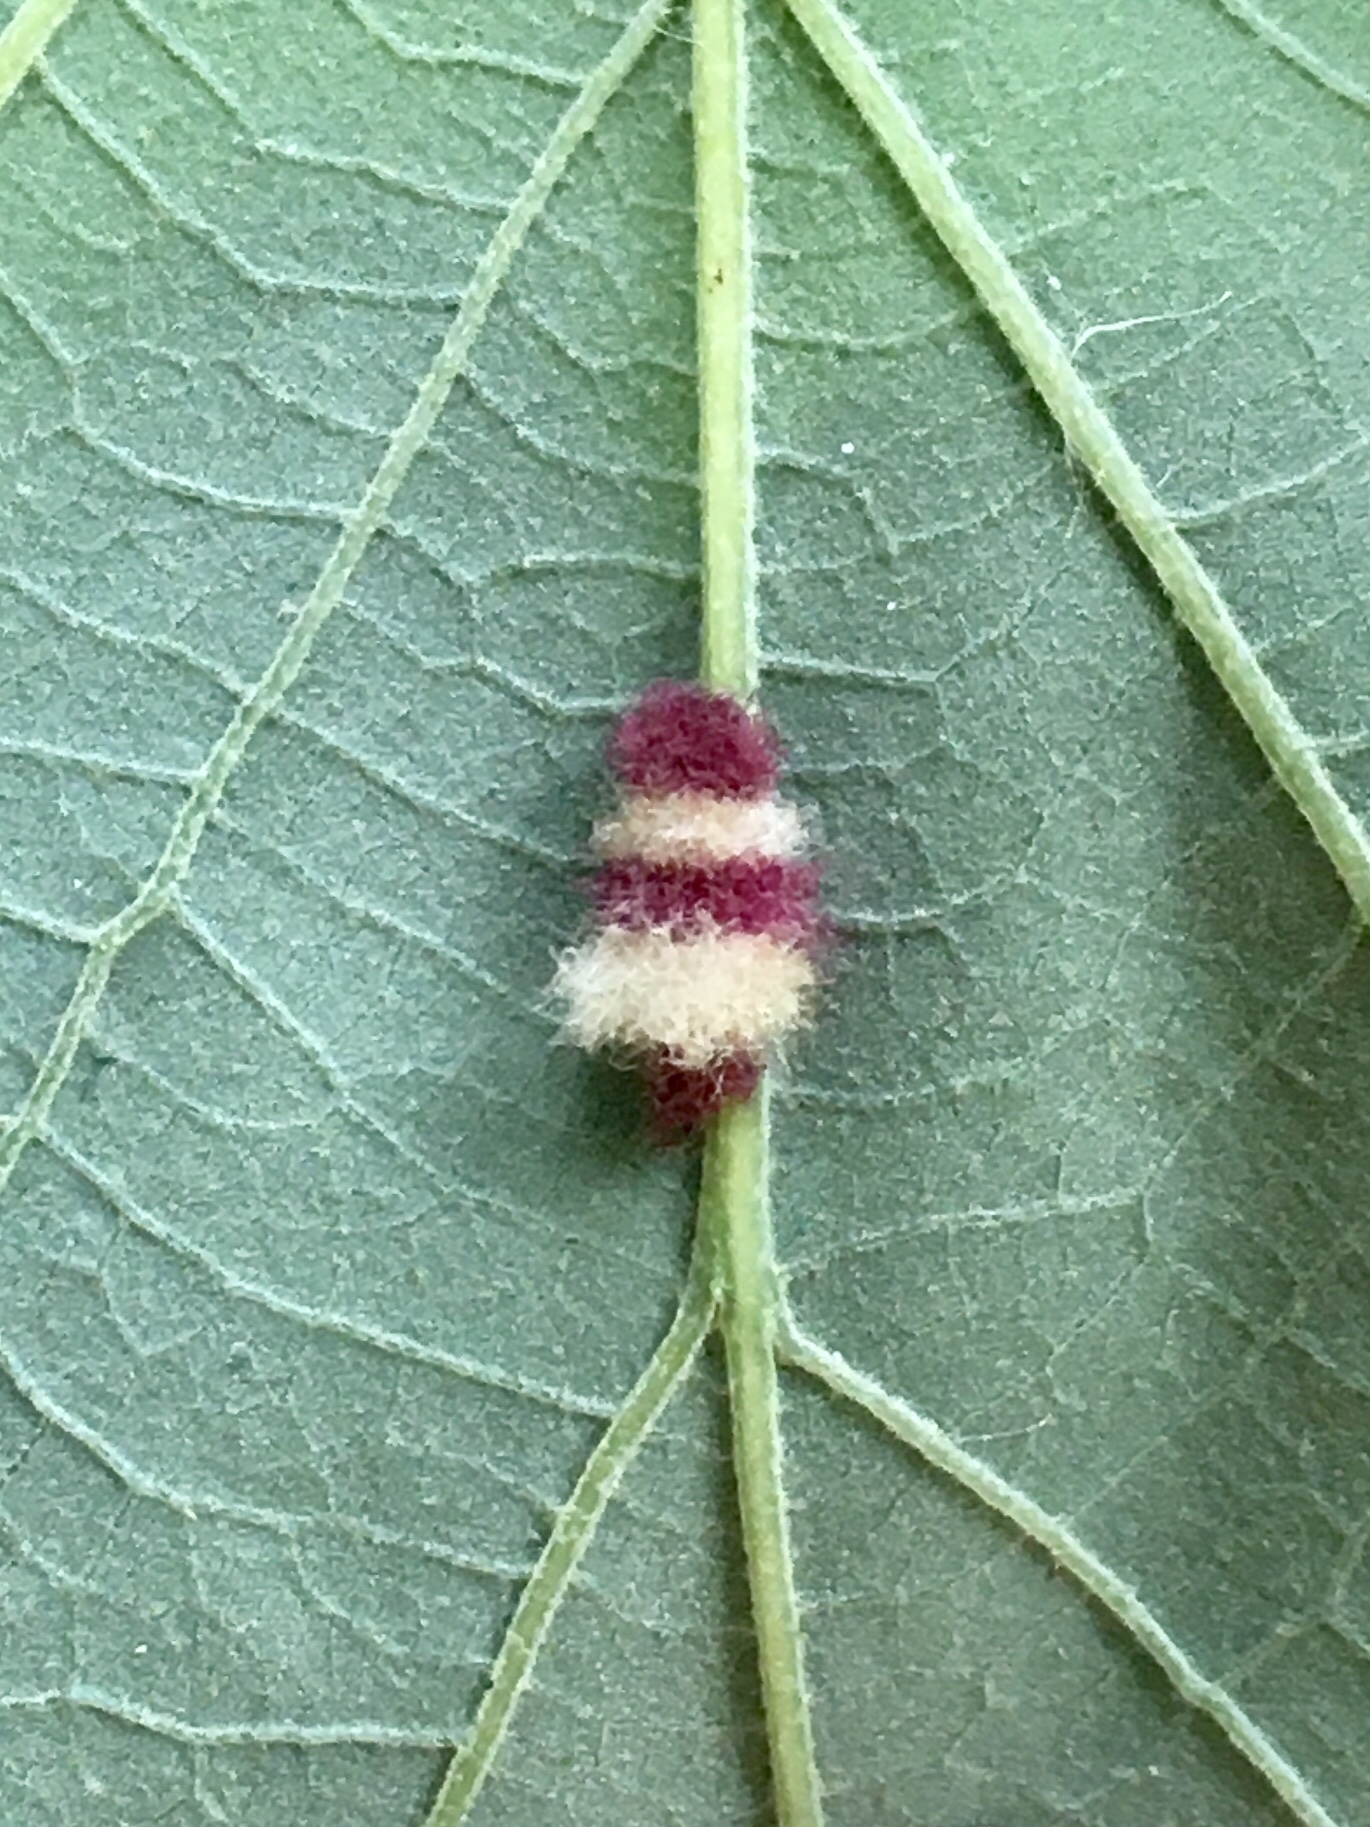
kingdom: Animalia
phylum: Arthropoda
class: Insecta
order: Hymenoptera
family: Cynipidae
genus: Andricus
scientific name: Andricus Druon ignotum
